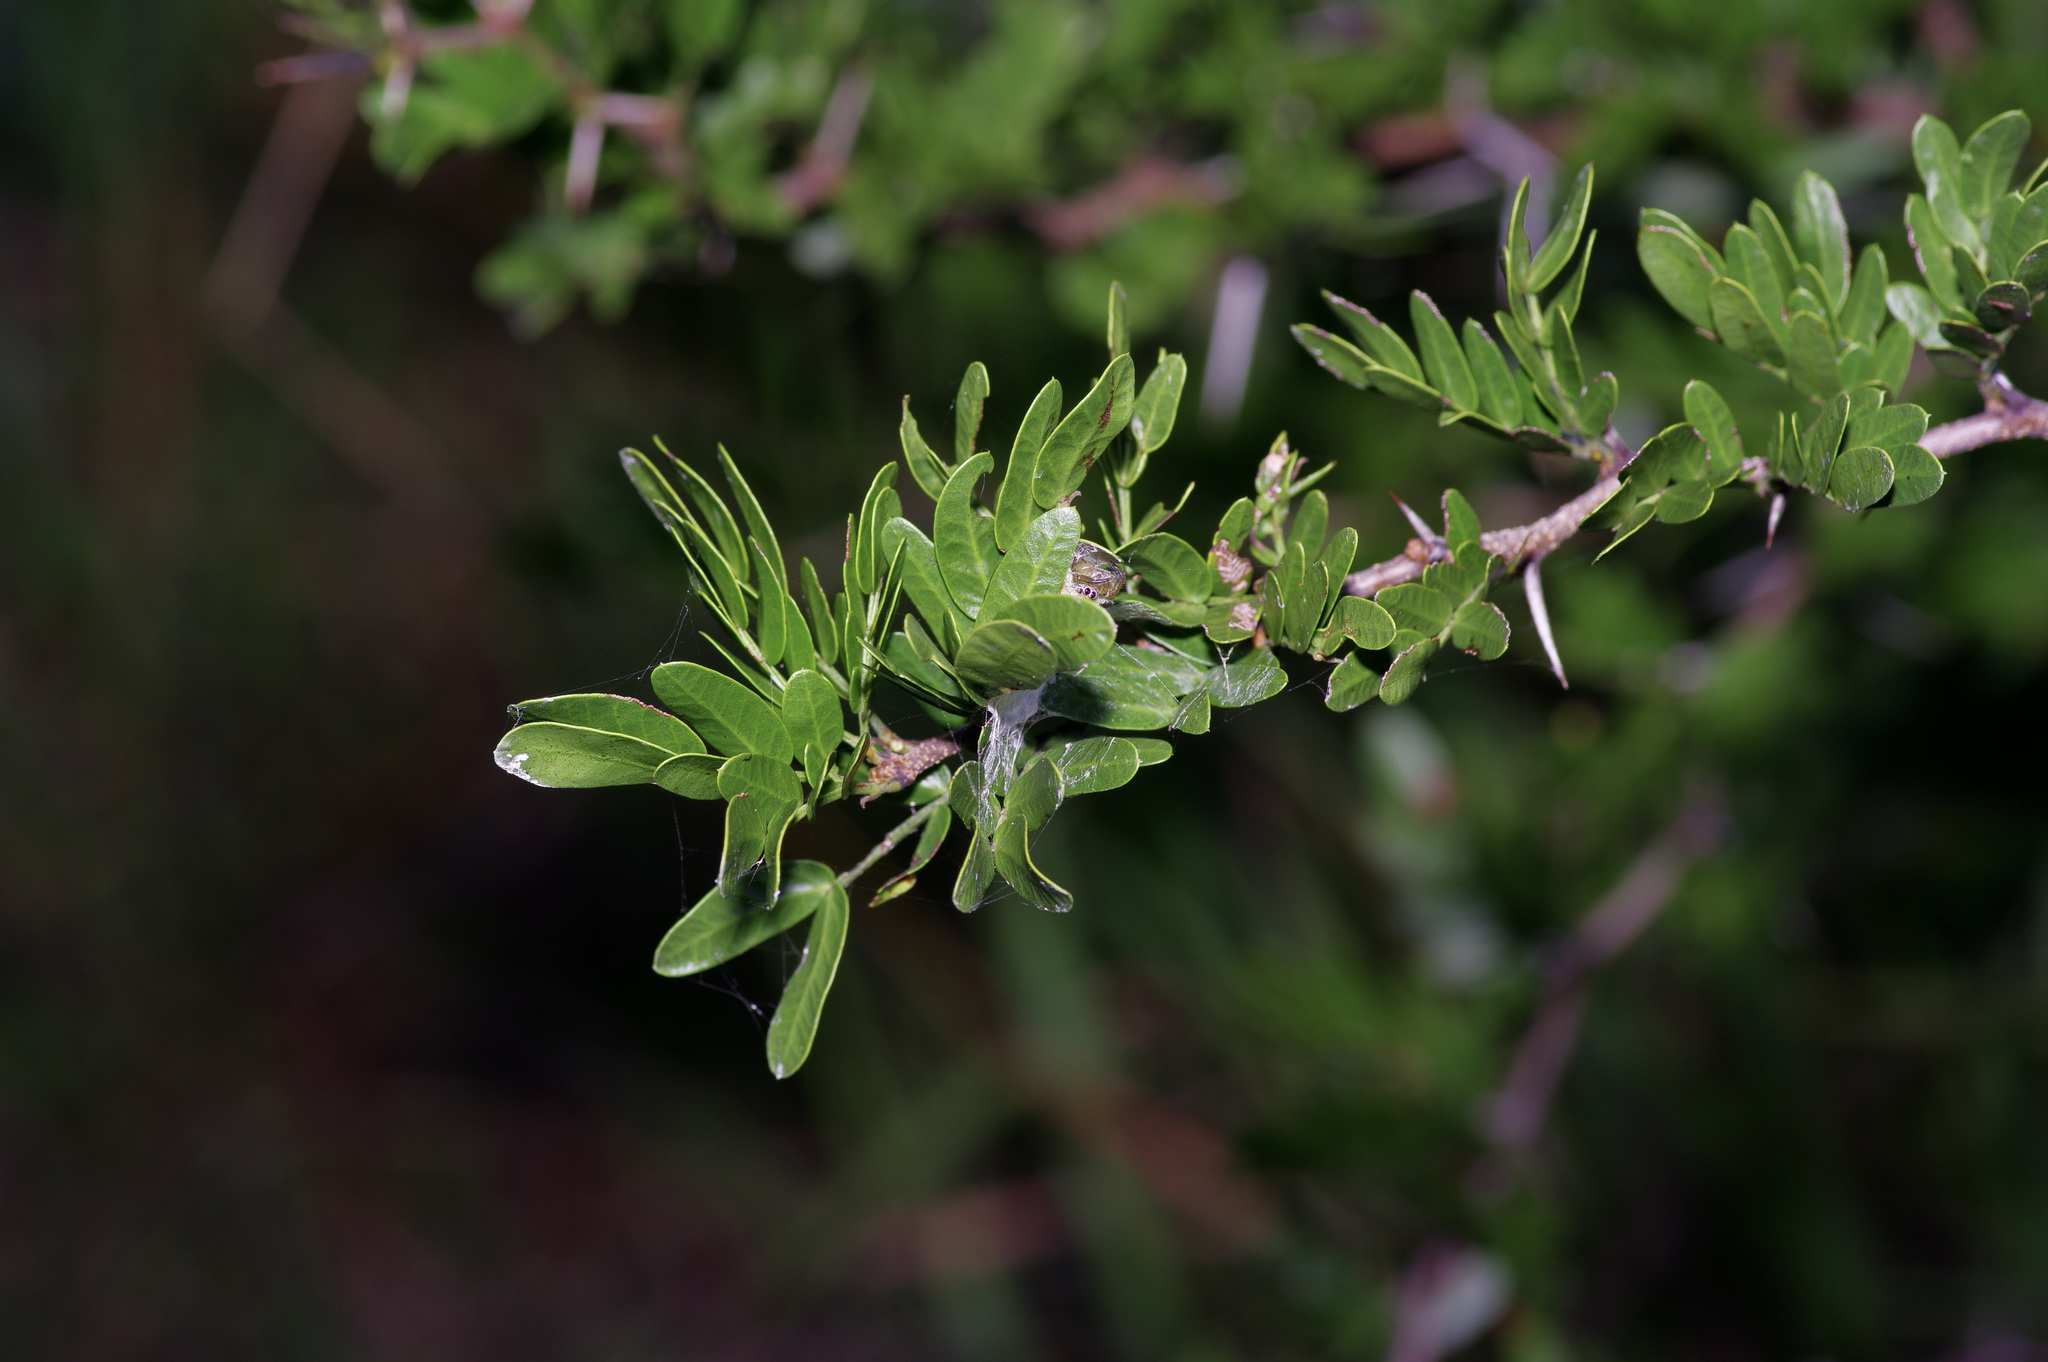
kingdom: Plantae
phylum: Tracheophyta
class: Magnoliopsida
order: Fabales
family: Fabaceae
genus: Vachellia
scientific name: Vachellia rigidula
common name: Blackbrush
